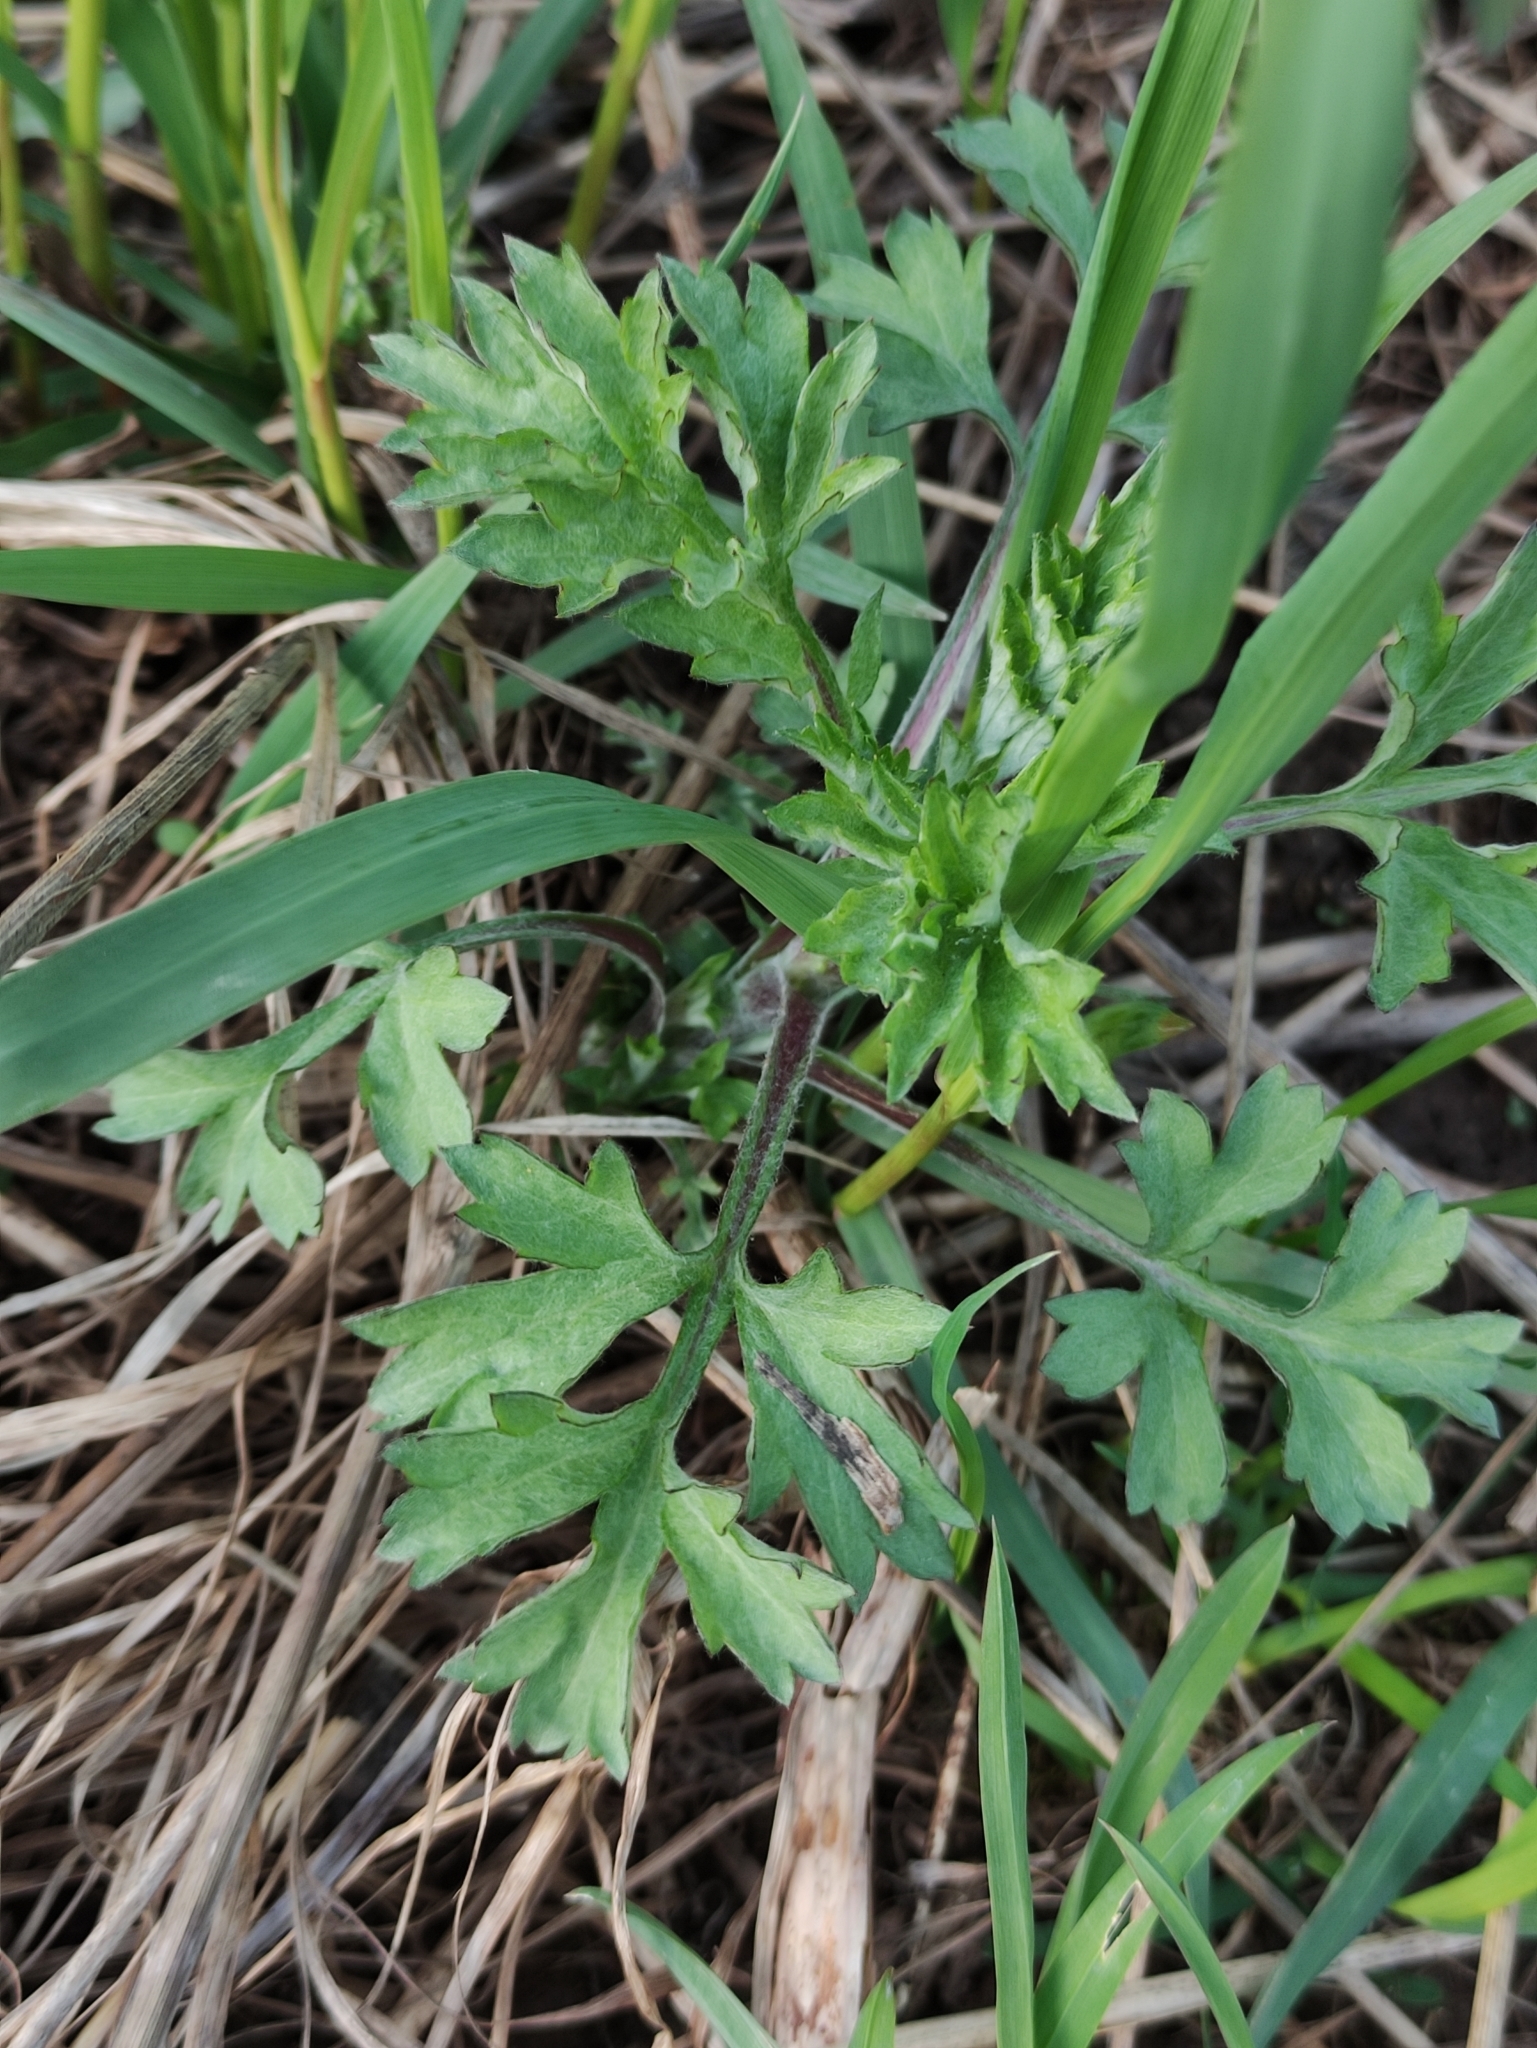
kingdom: Plantae
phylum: Tracheophyta
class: Magnoliopsida
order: Asterales
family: Asteraceae
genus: Artemisia
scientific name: Artemisia vulgaris
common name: Mugwort
